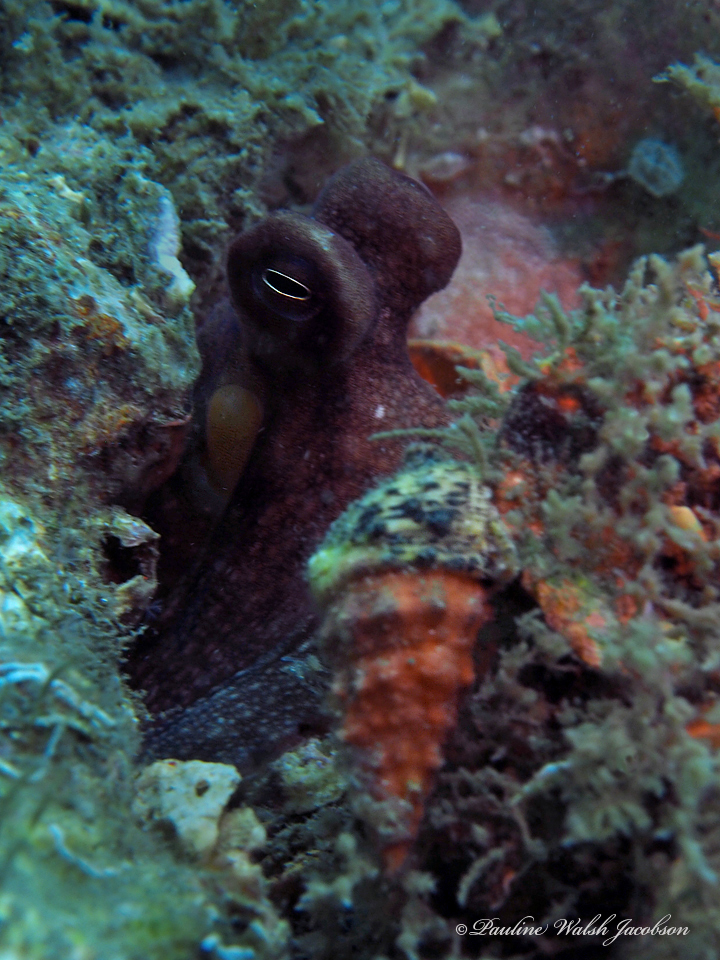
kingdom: Animalia
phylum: Mollusca
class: Cephalopoda
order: Octopoda
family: Octopodidae
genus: Octopus
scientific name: Octopus americanus
